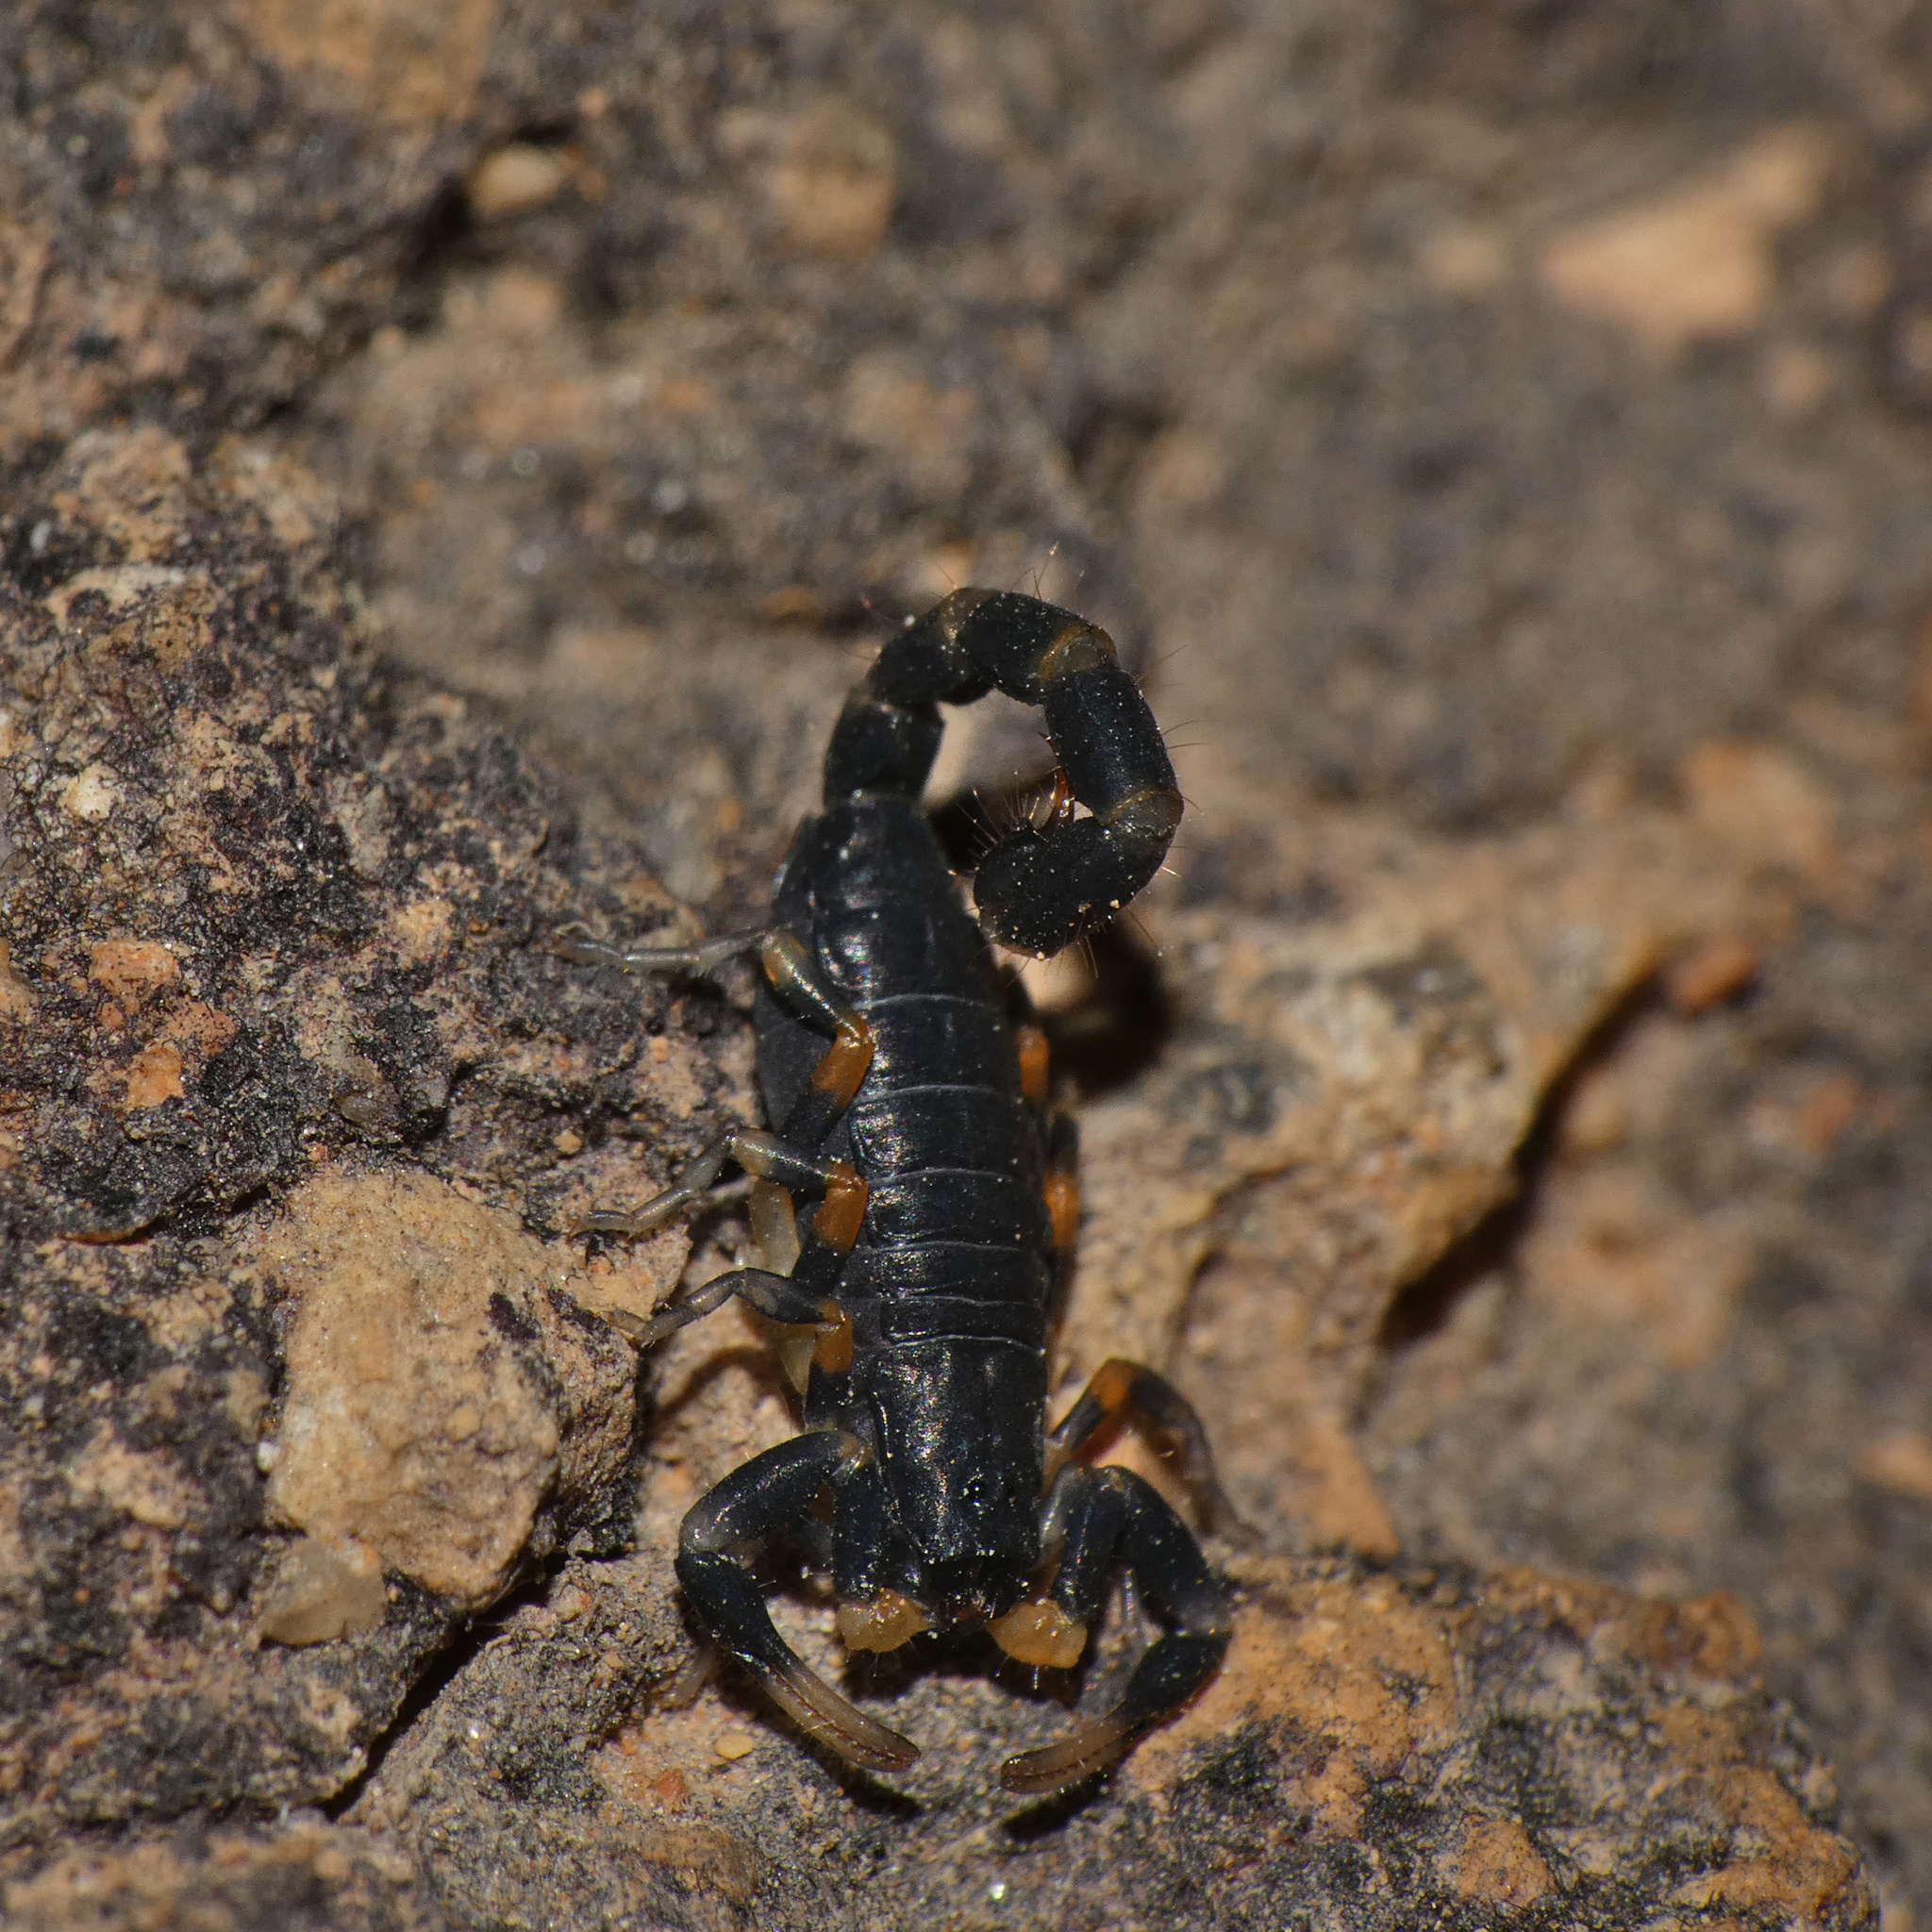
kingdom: Animalia
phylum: Arthropoda
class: Arachnida
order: Scorpiones
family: Buthidae
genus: Uroplectes
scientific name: Uroplectes flavoviridis
